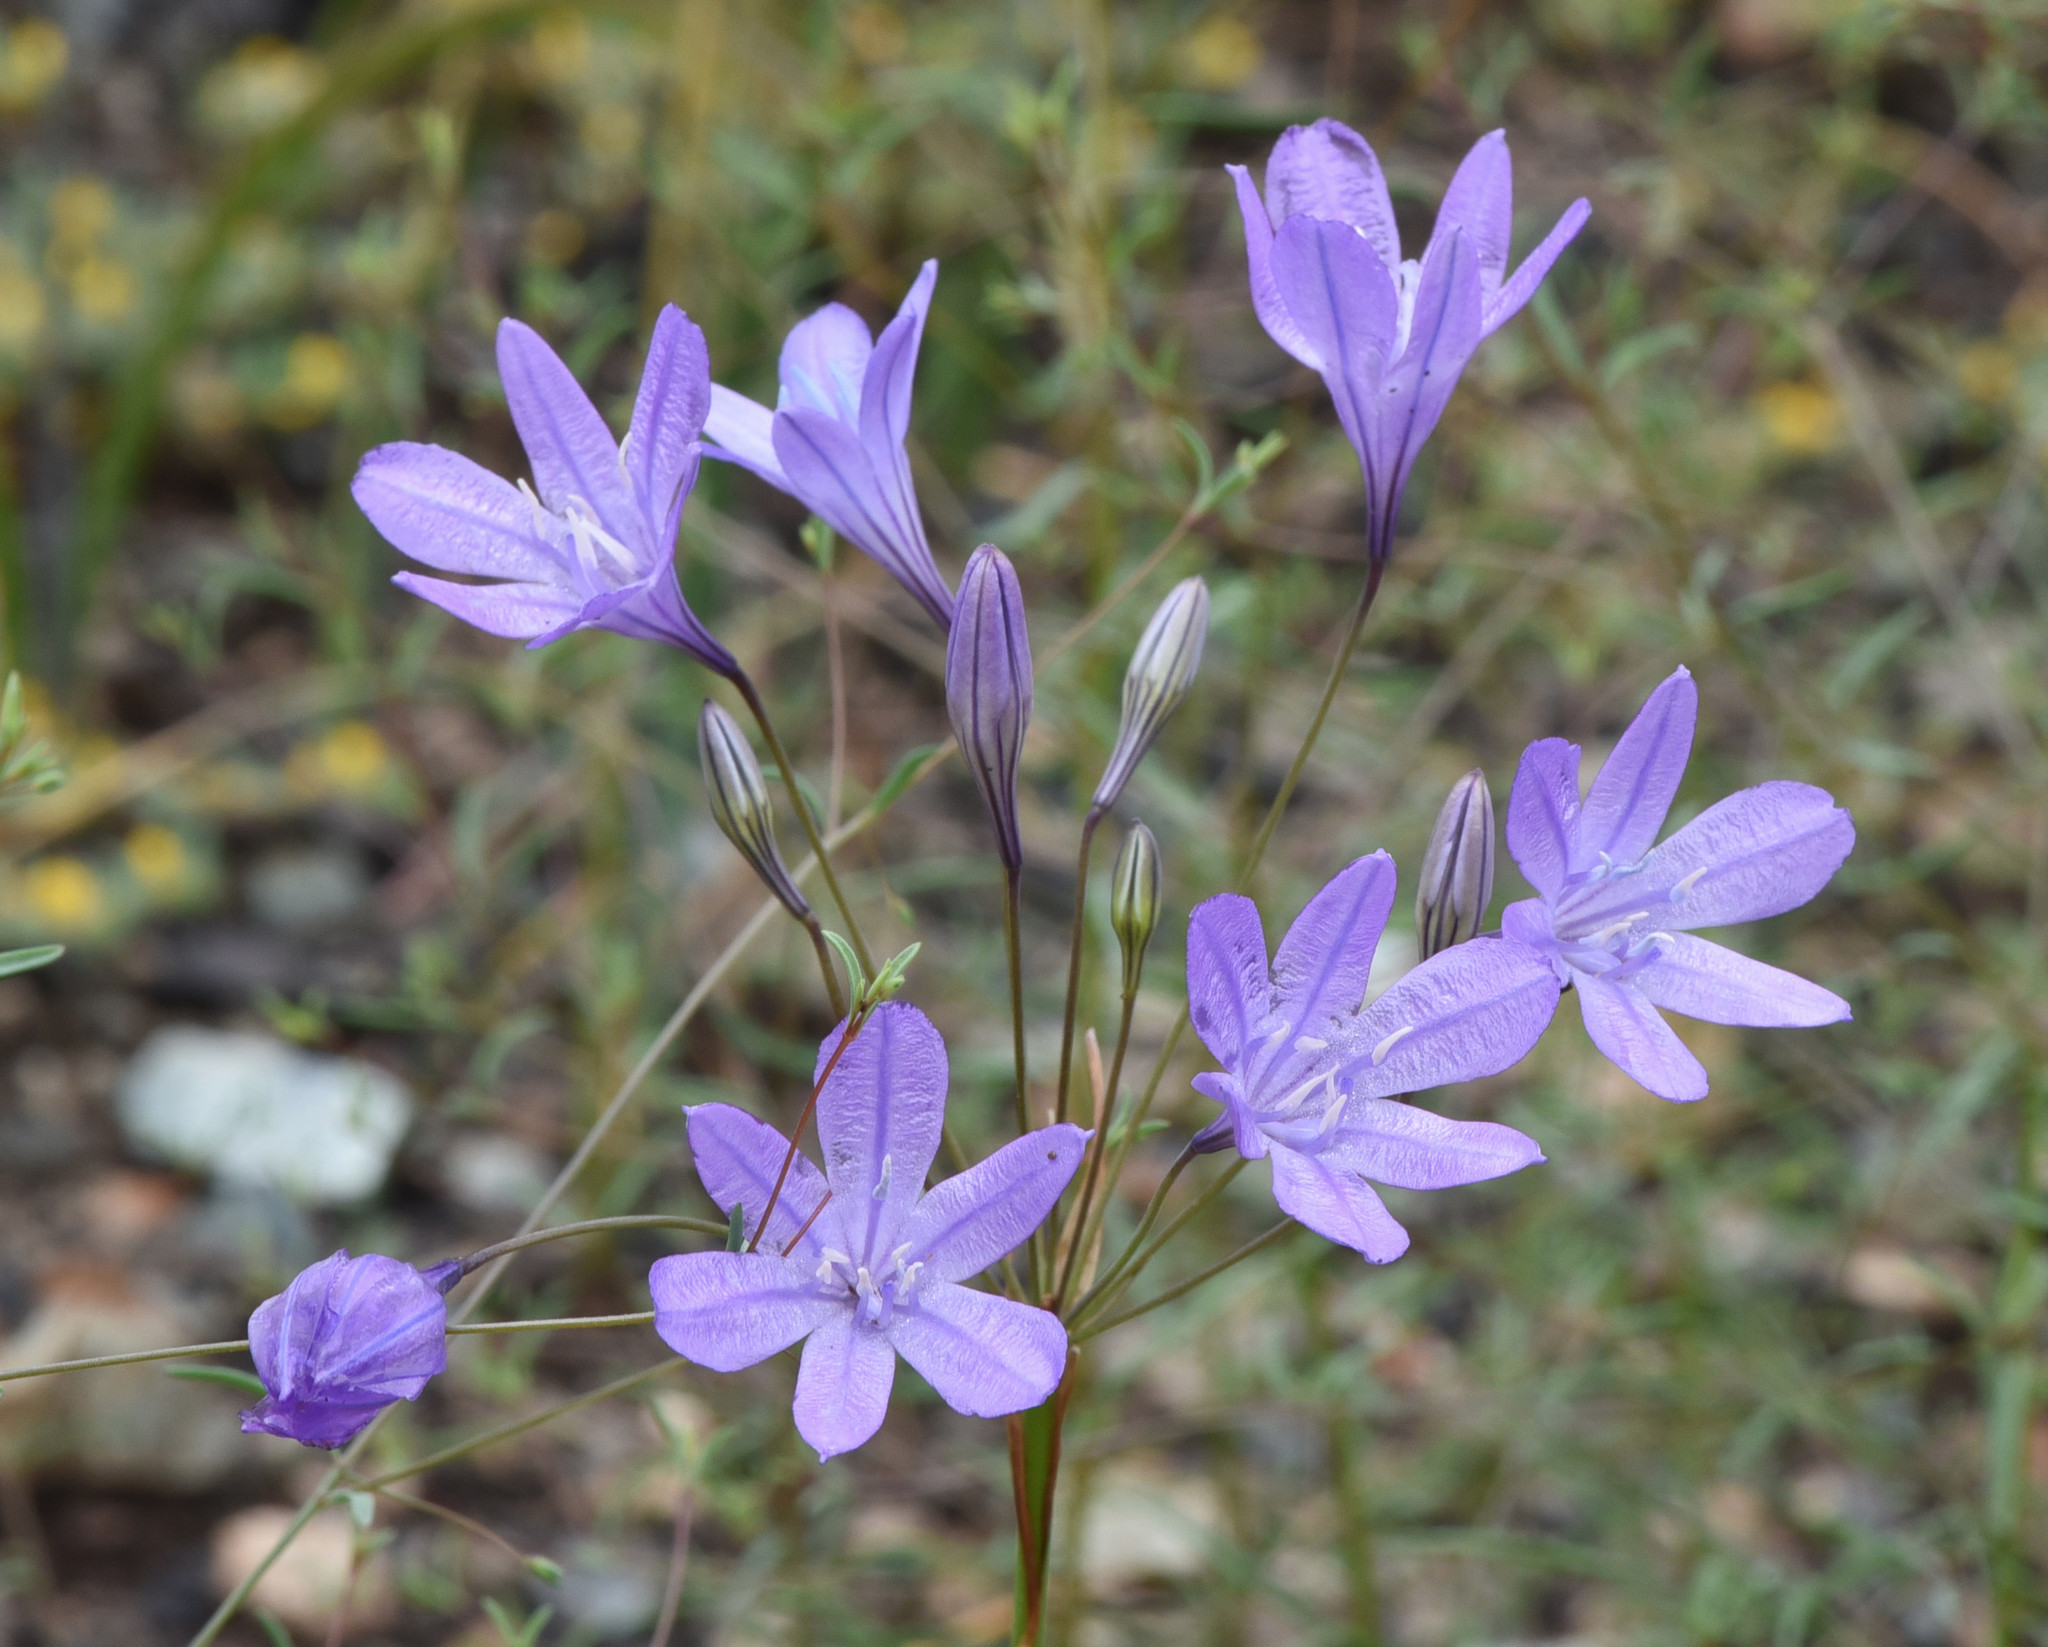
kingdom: Plantae
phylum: Tracheophyta
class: Liliopsida
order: Asparagales
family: Asparagaceae
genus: Triteleia
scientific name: Triteleia laxa
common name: Triplet-lily
